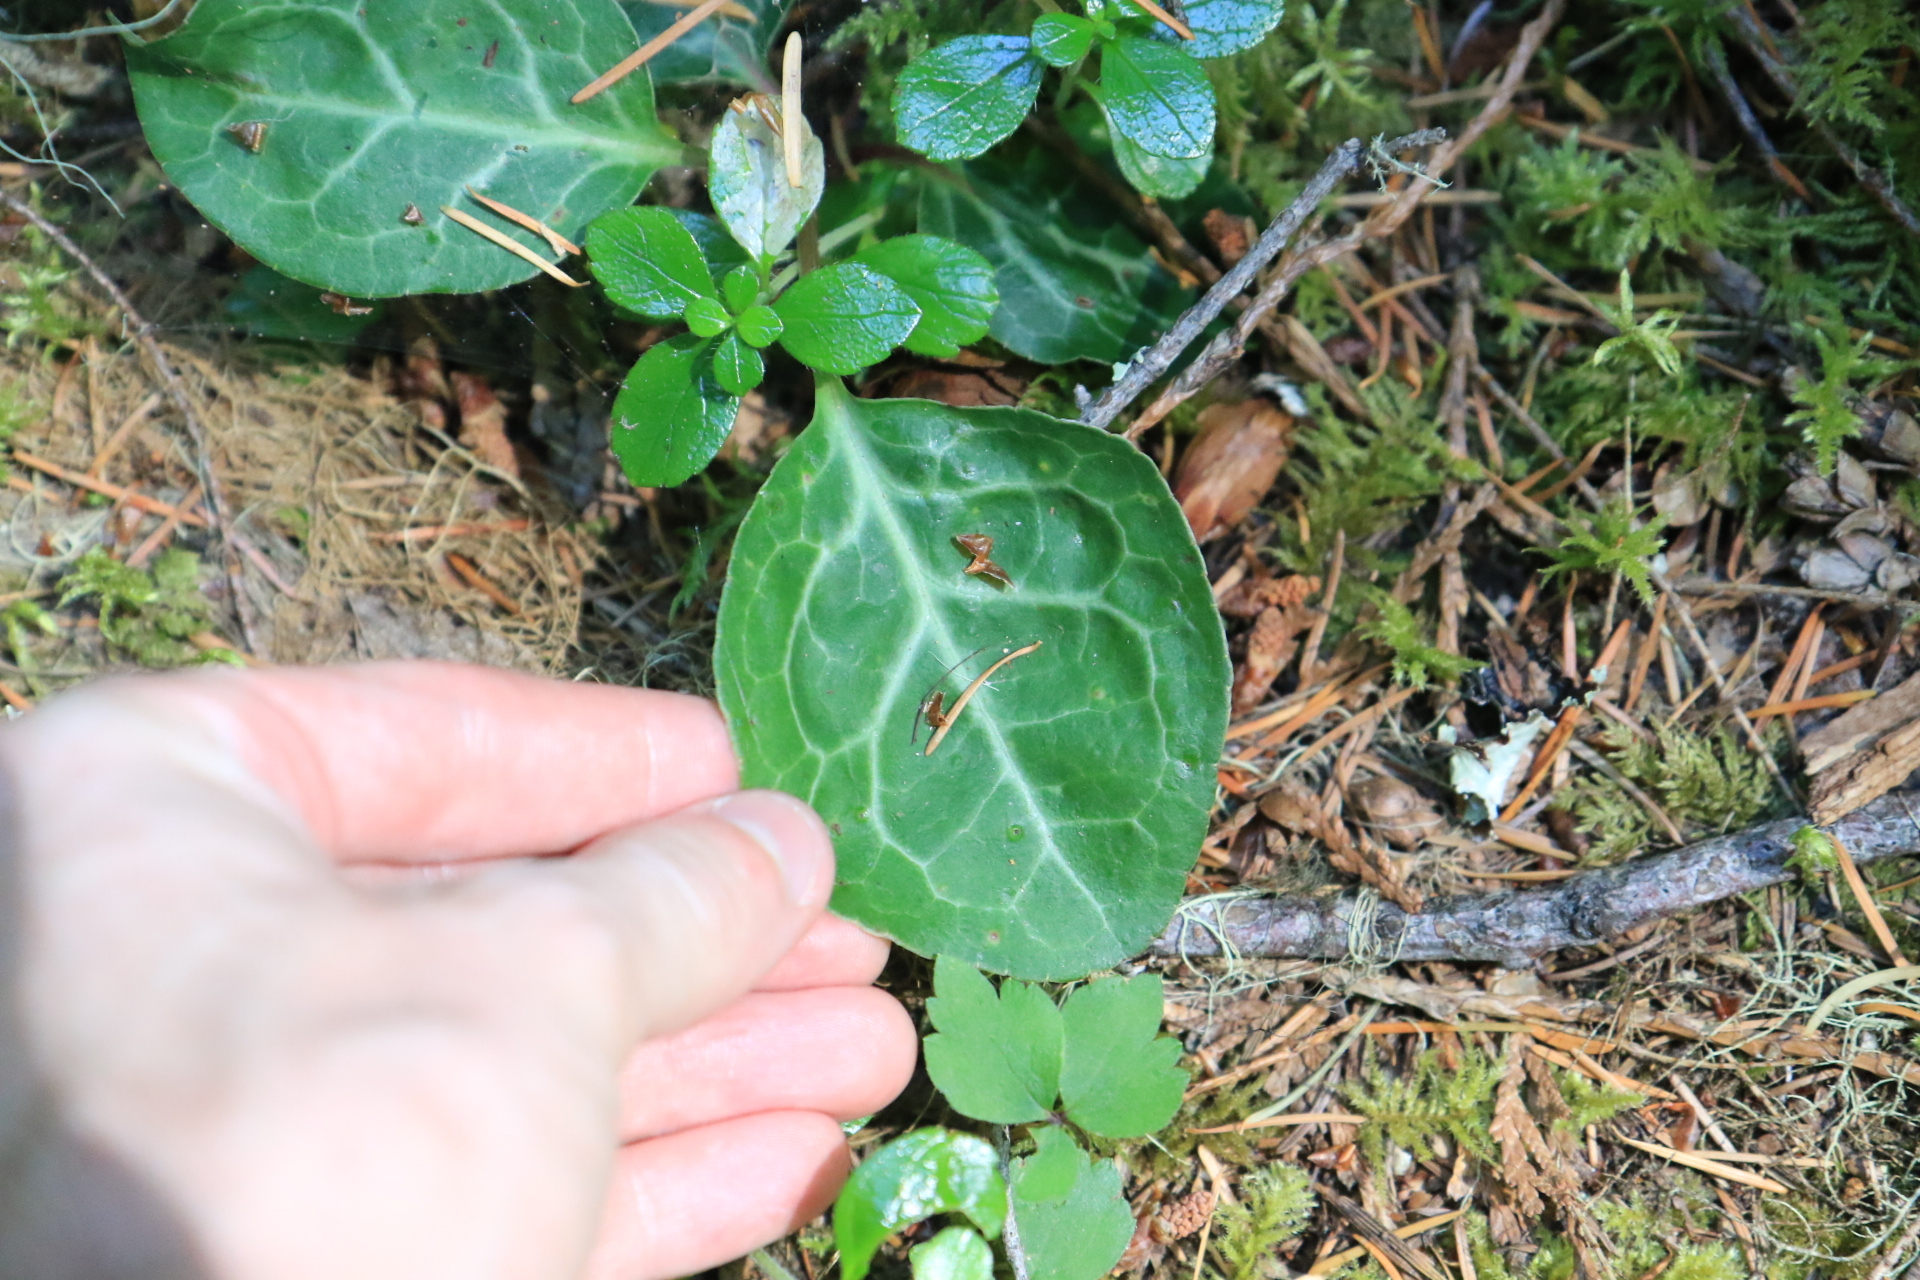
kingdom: Plantae
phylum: Tracheophyta
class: Magnoliopsida
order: Ericales
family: Ericaceae
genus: Pyrola
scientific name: Pyrola picta
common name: White-vein wintergreen
